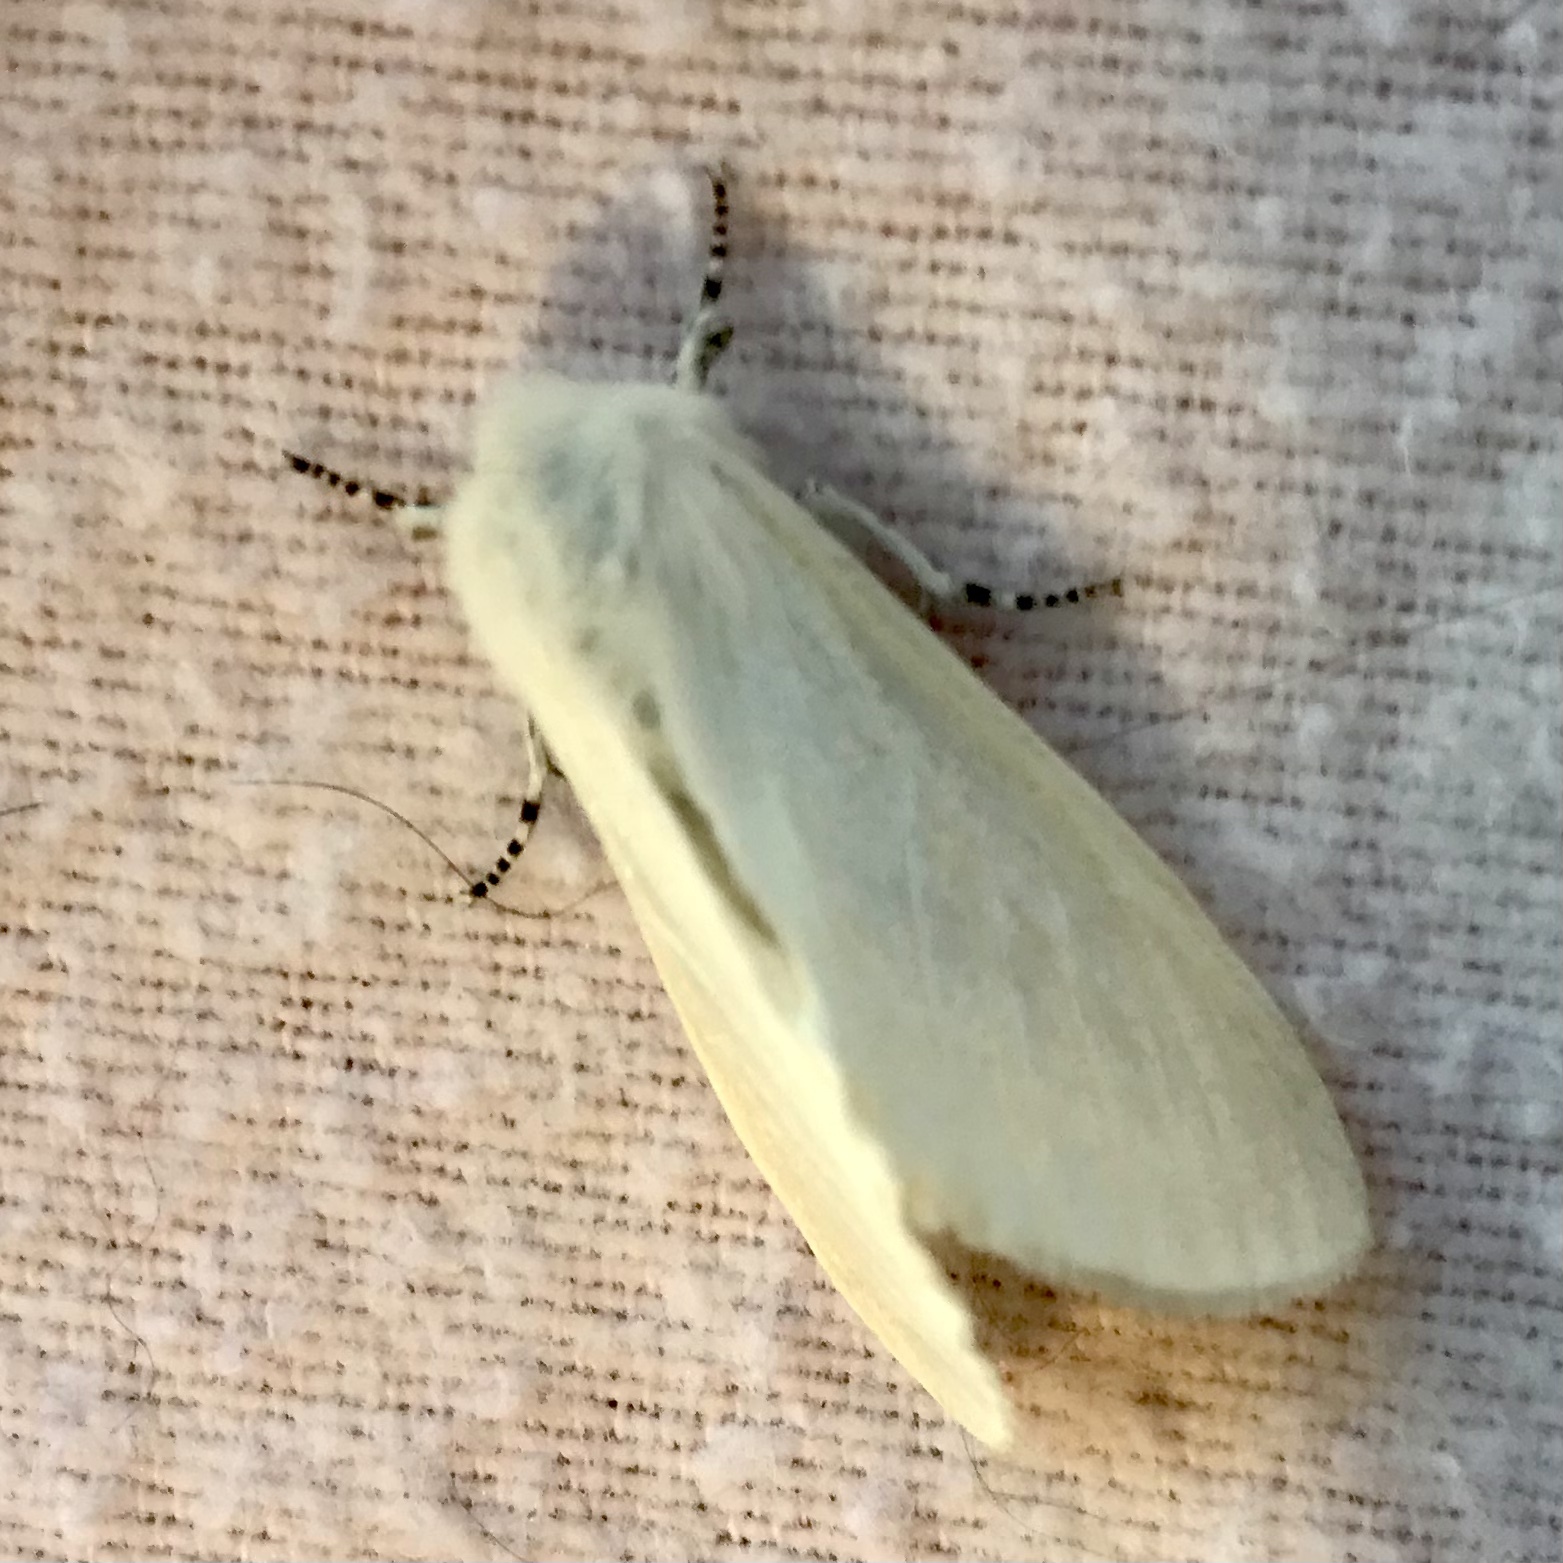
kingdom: Animalia
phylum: Arthropoda
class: Insecta
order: Lepidoptera
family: Erebidae
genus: Leucoma
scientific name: Leucoma salicis
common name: White satin moth
